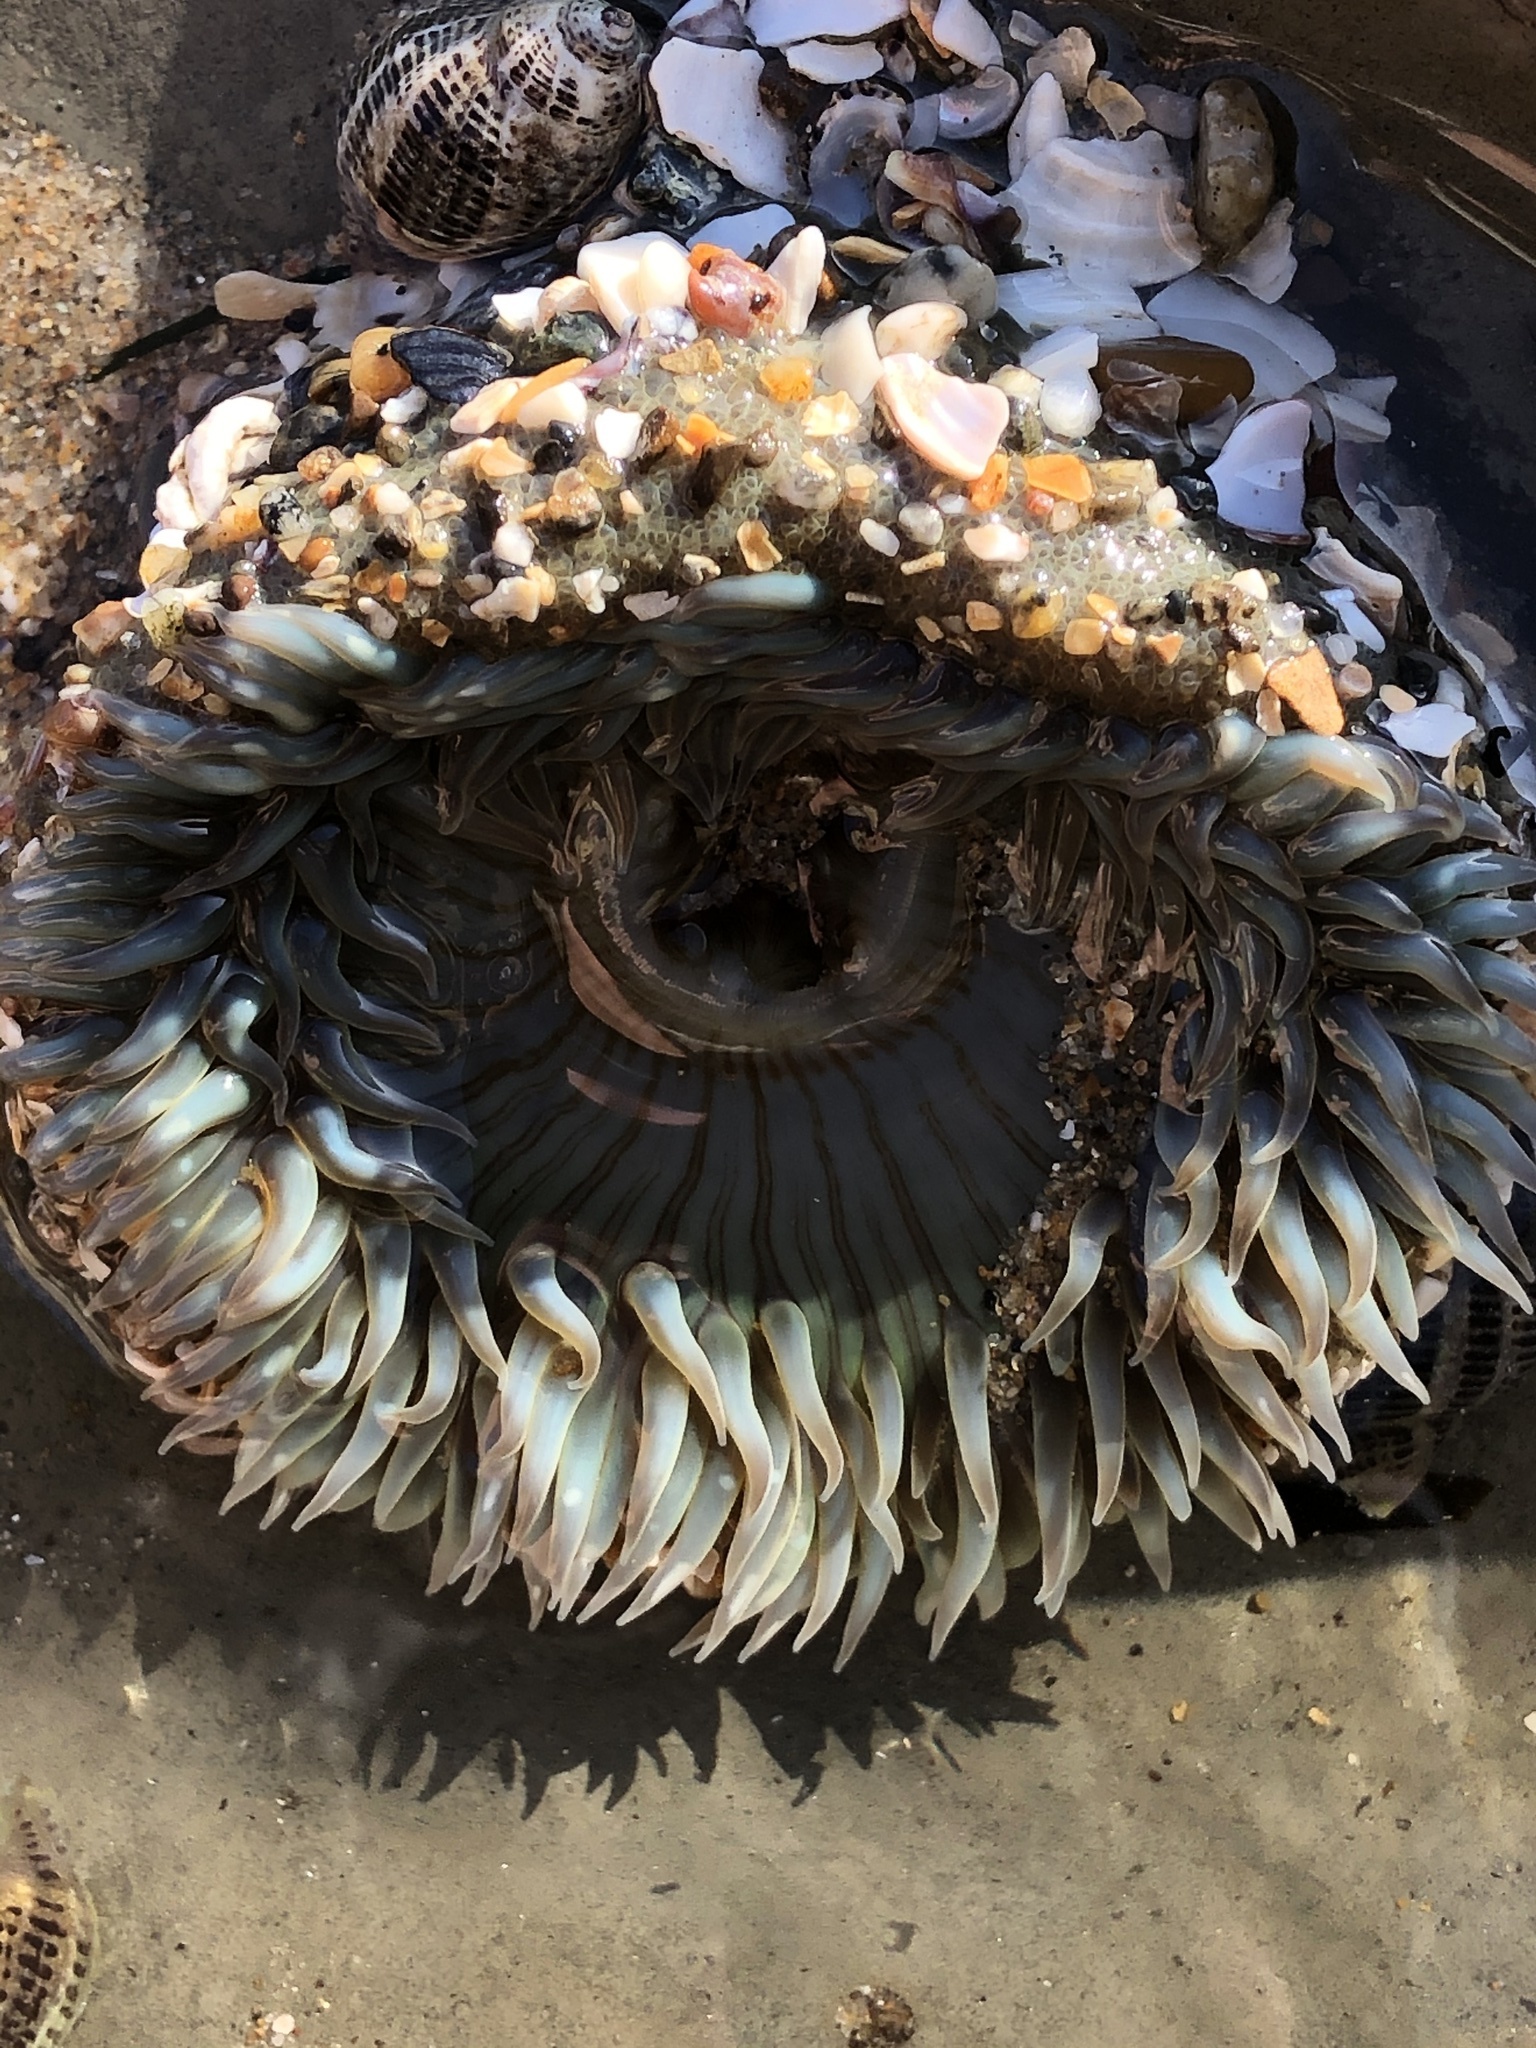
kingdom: Animalia
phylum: Cnidaria
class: Anthozoa
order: Actiniaria
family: Actiniidae
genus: Anthopleura
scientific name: Anthopleura sola
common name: Sun anemone
